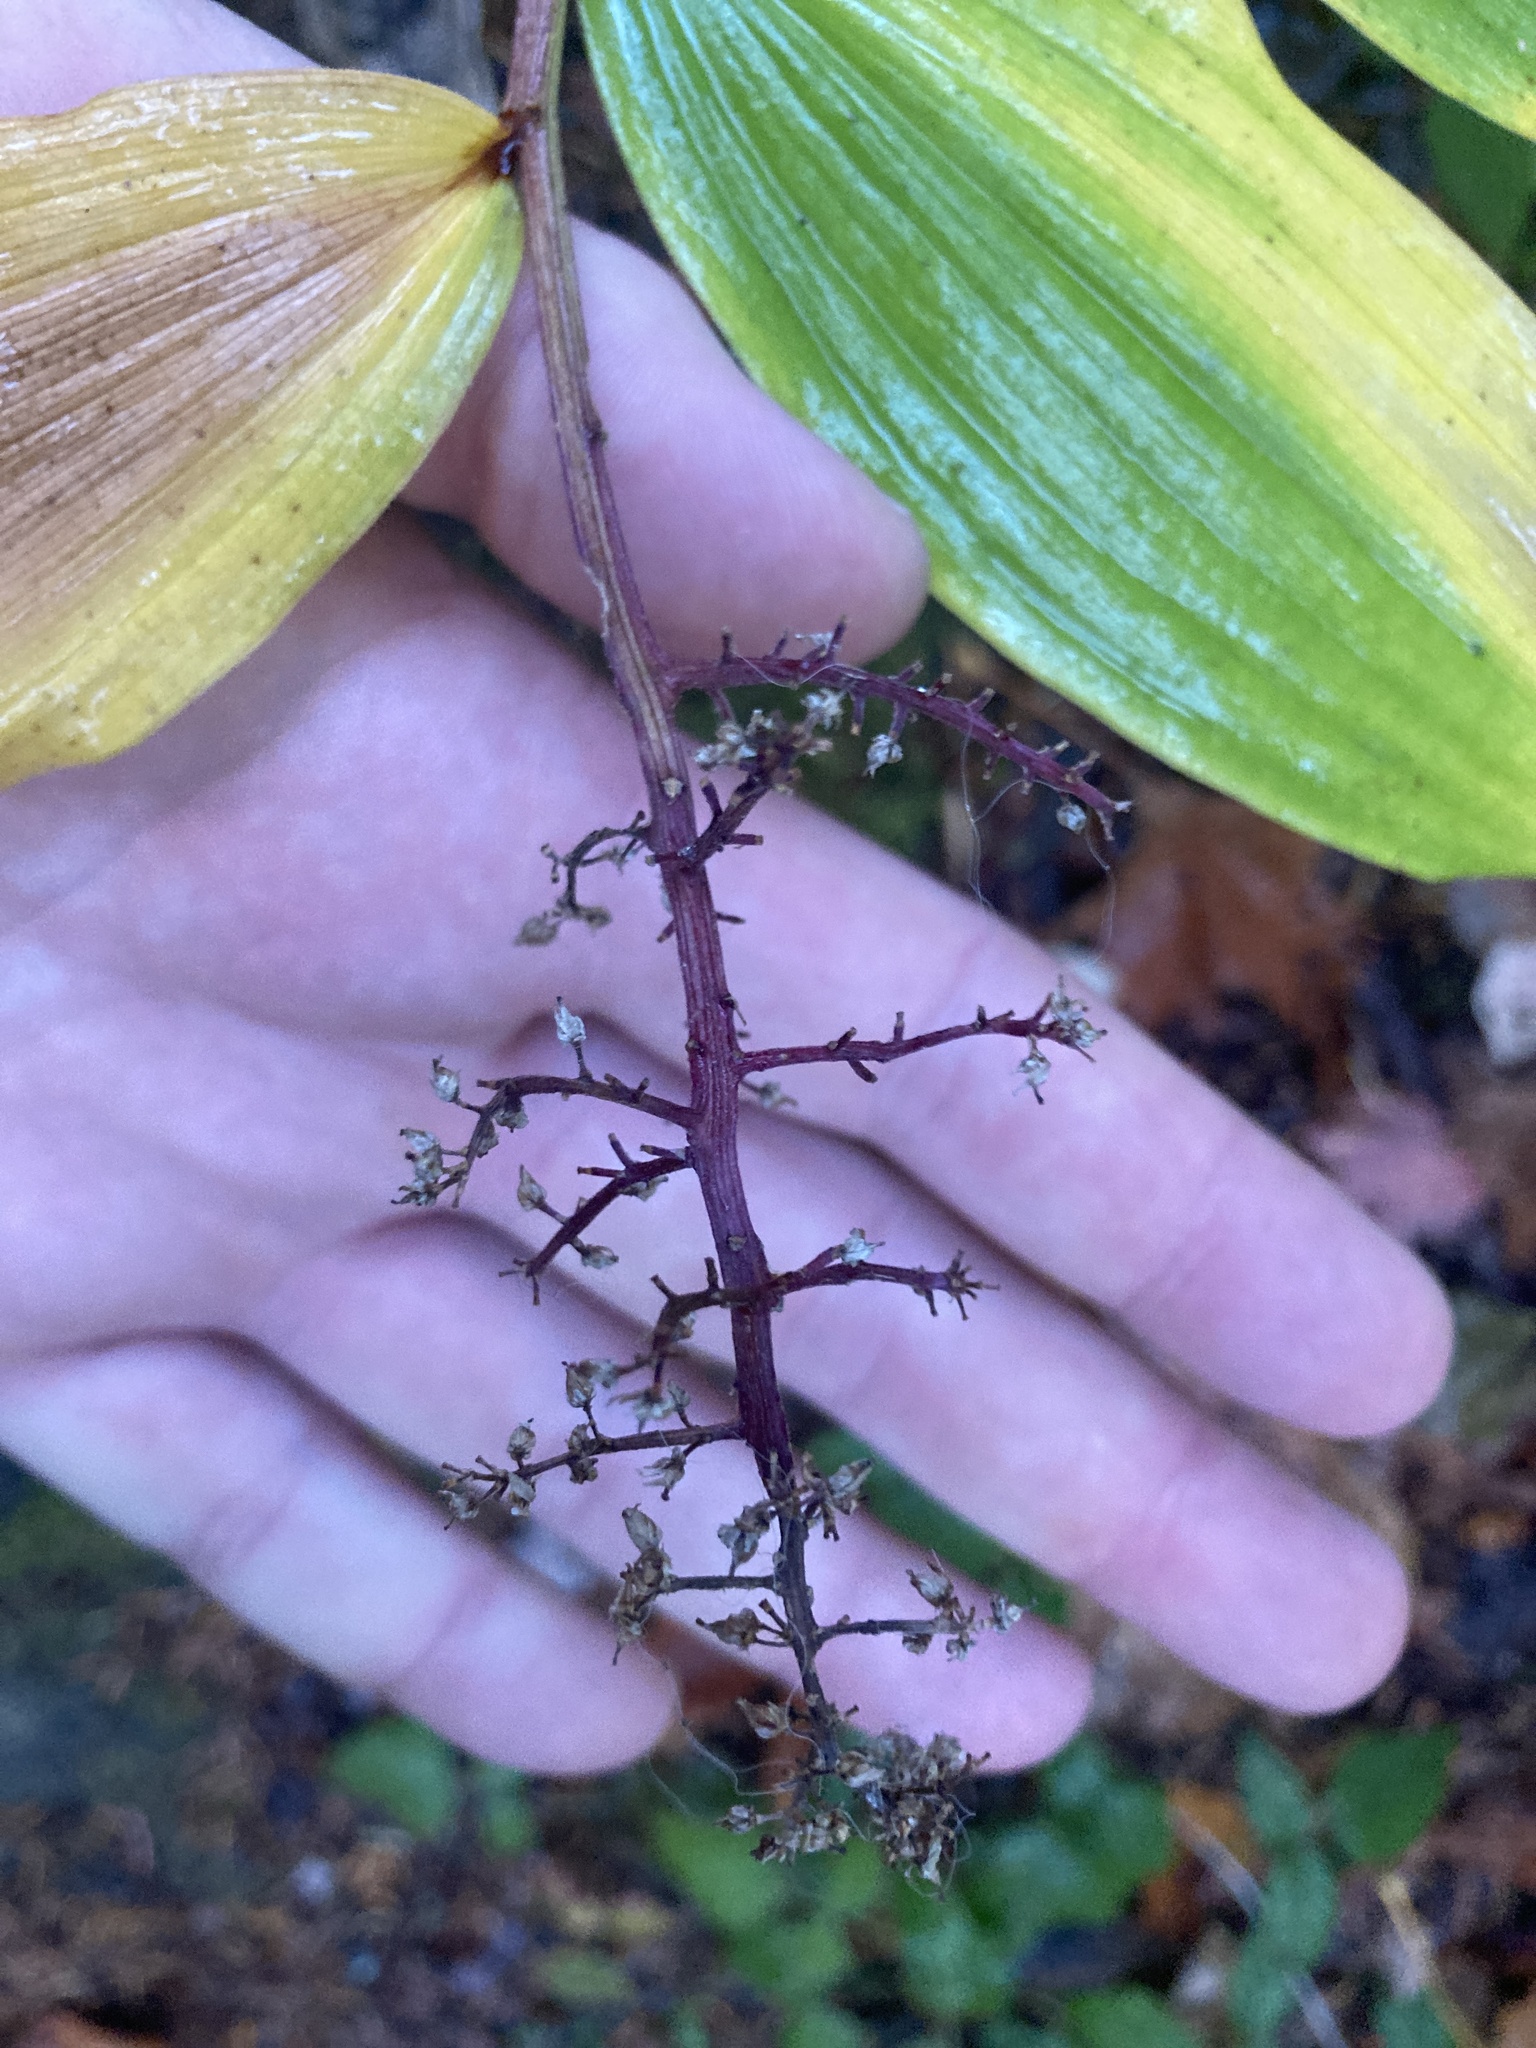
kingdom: Plantae
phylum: Tracheophyta
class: Liliopsida
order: Asparagales
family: Asparagaceae
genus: Maianthemum
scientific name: Maianthemum racemosum
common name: False spikenard
